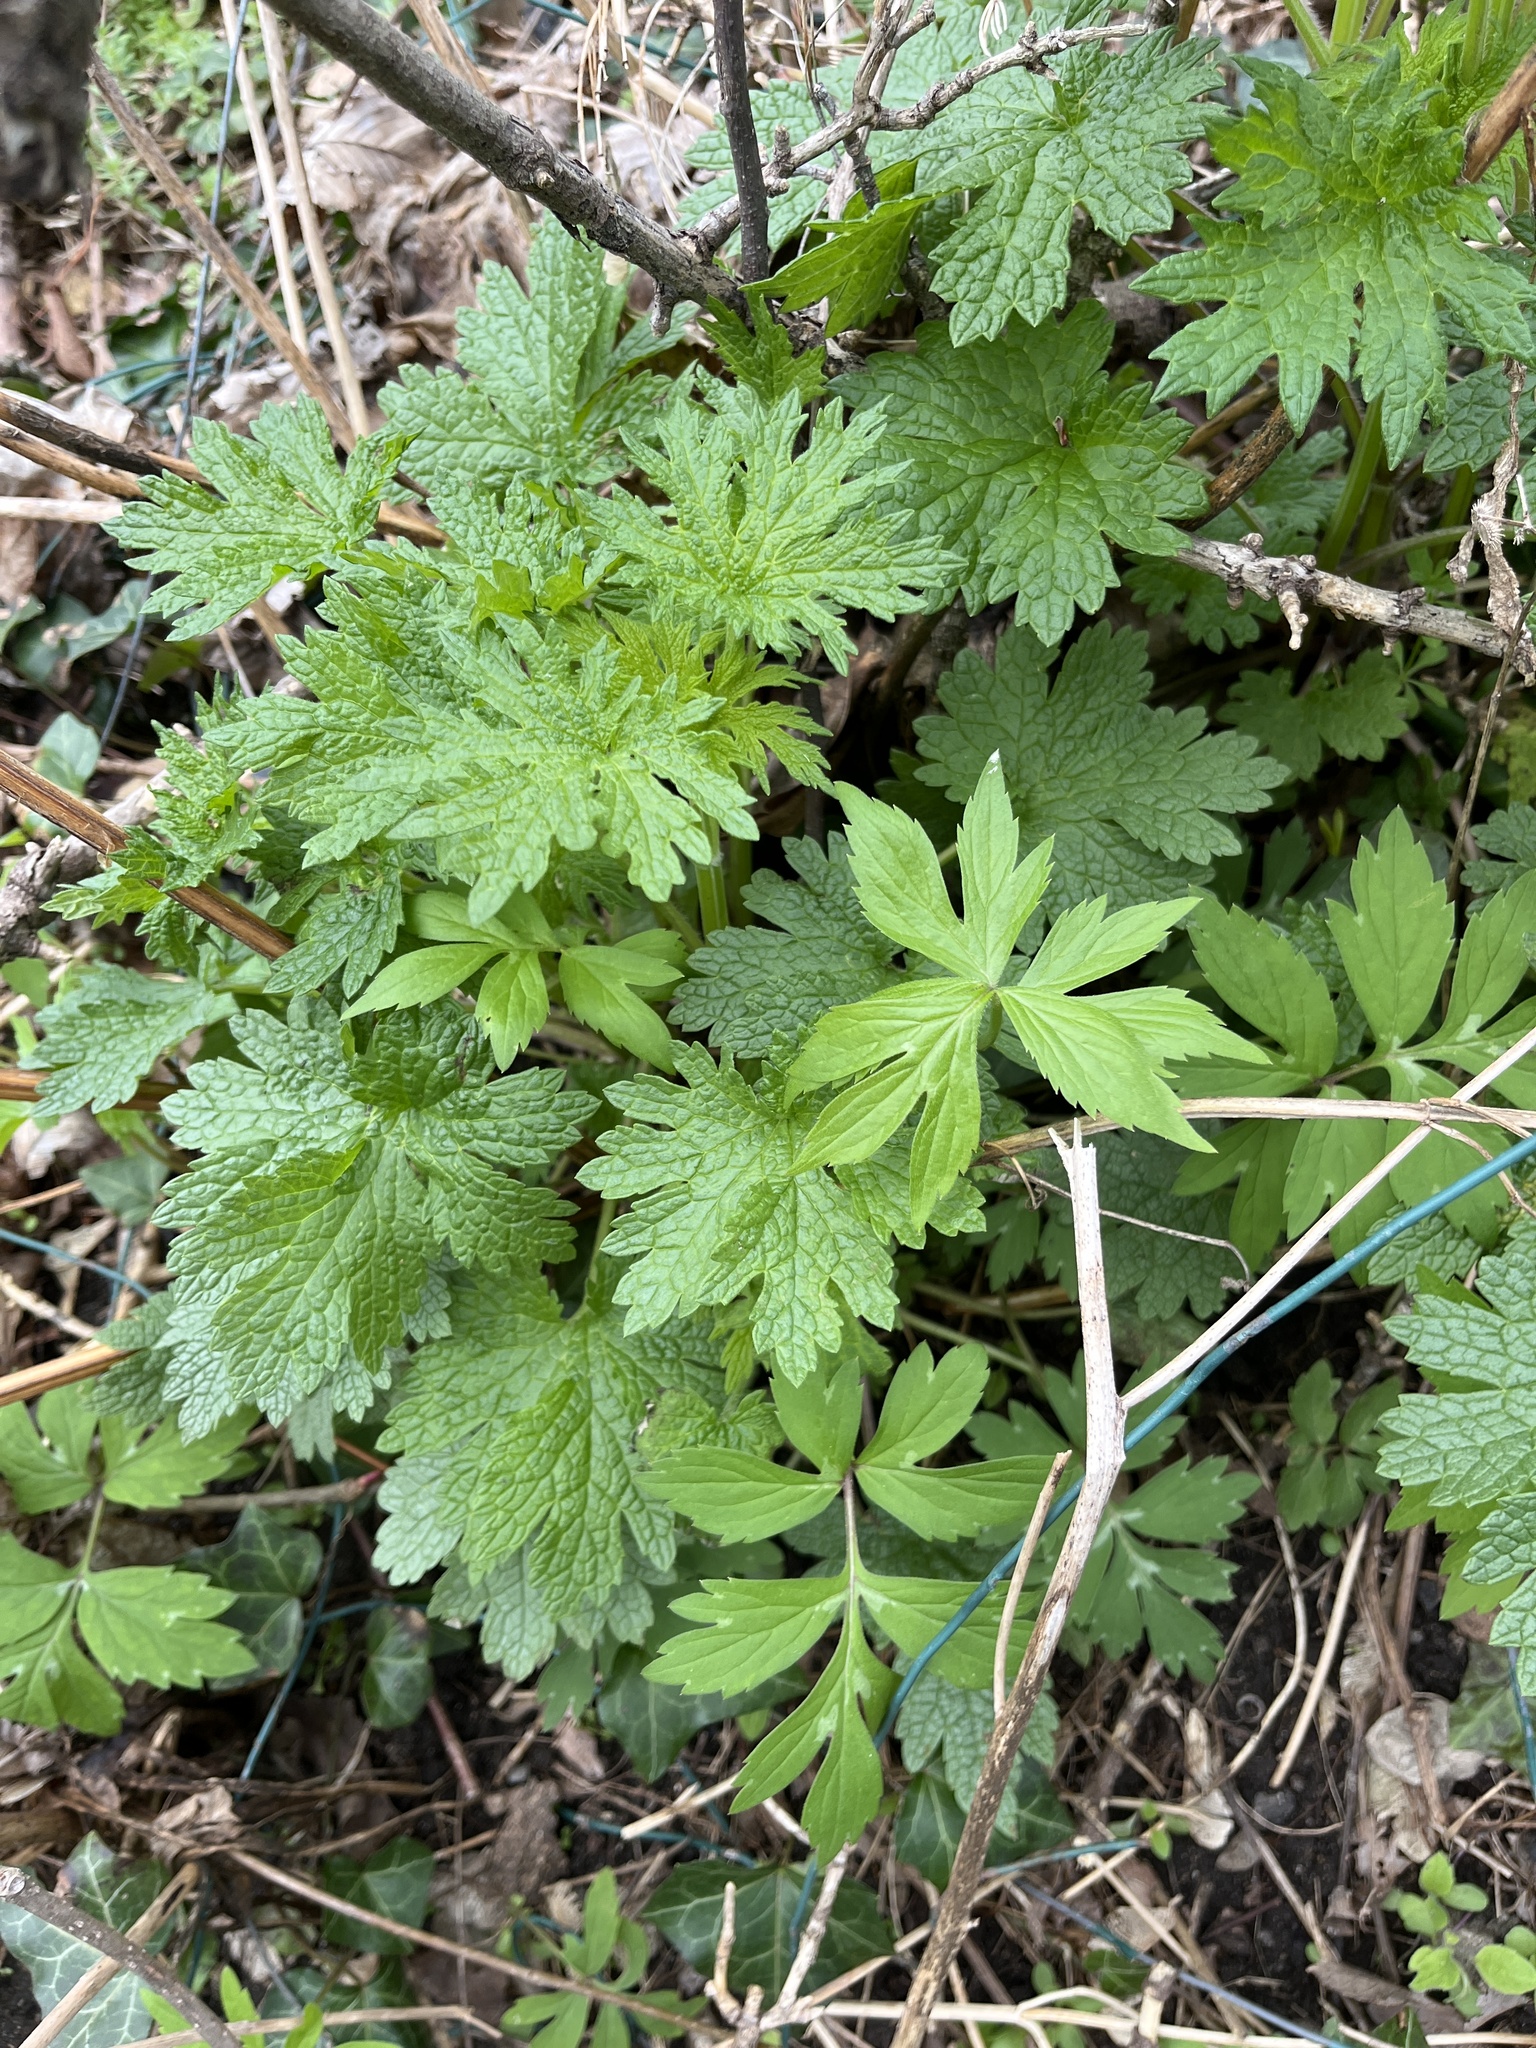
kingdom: Plantae
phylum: Tracheophyta
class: Magnoliopsida
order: Lamiales
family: Lamiaceae
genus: Leonurus
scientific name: Leonurus cardiaca
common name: Motherwort
